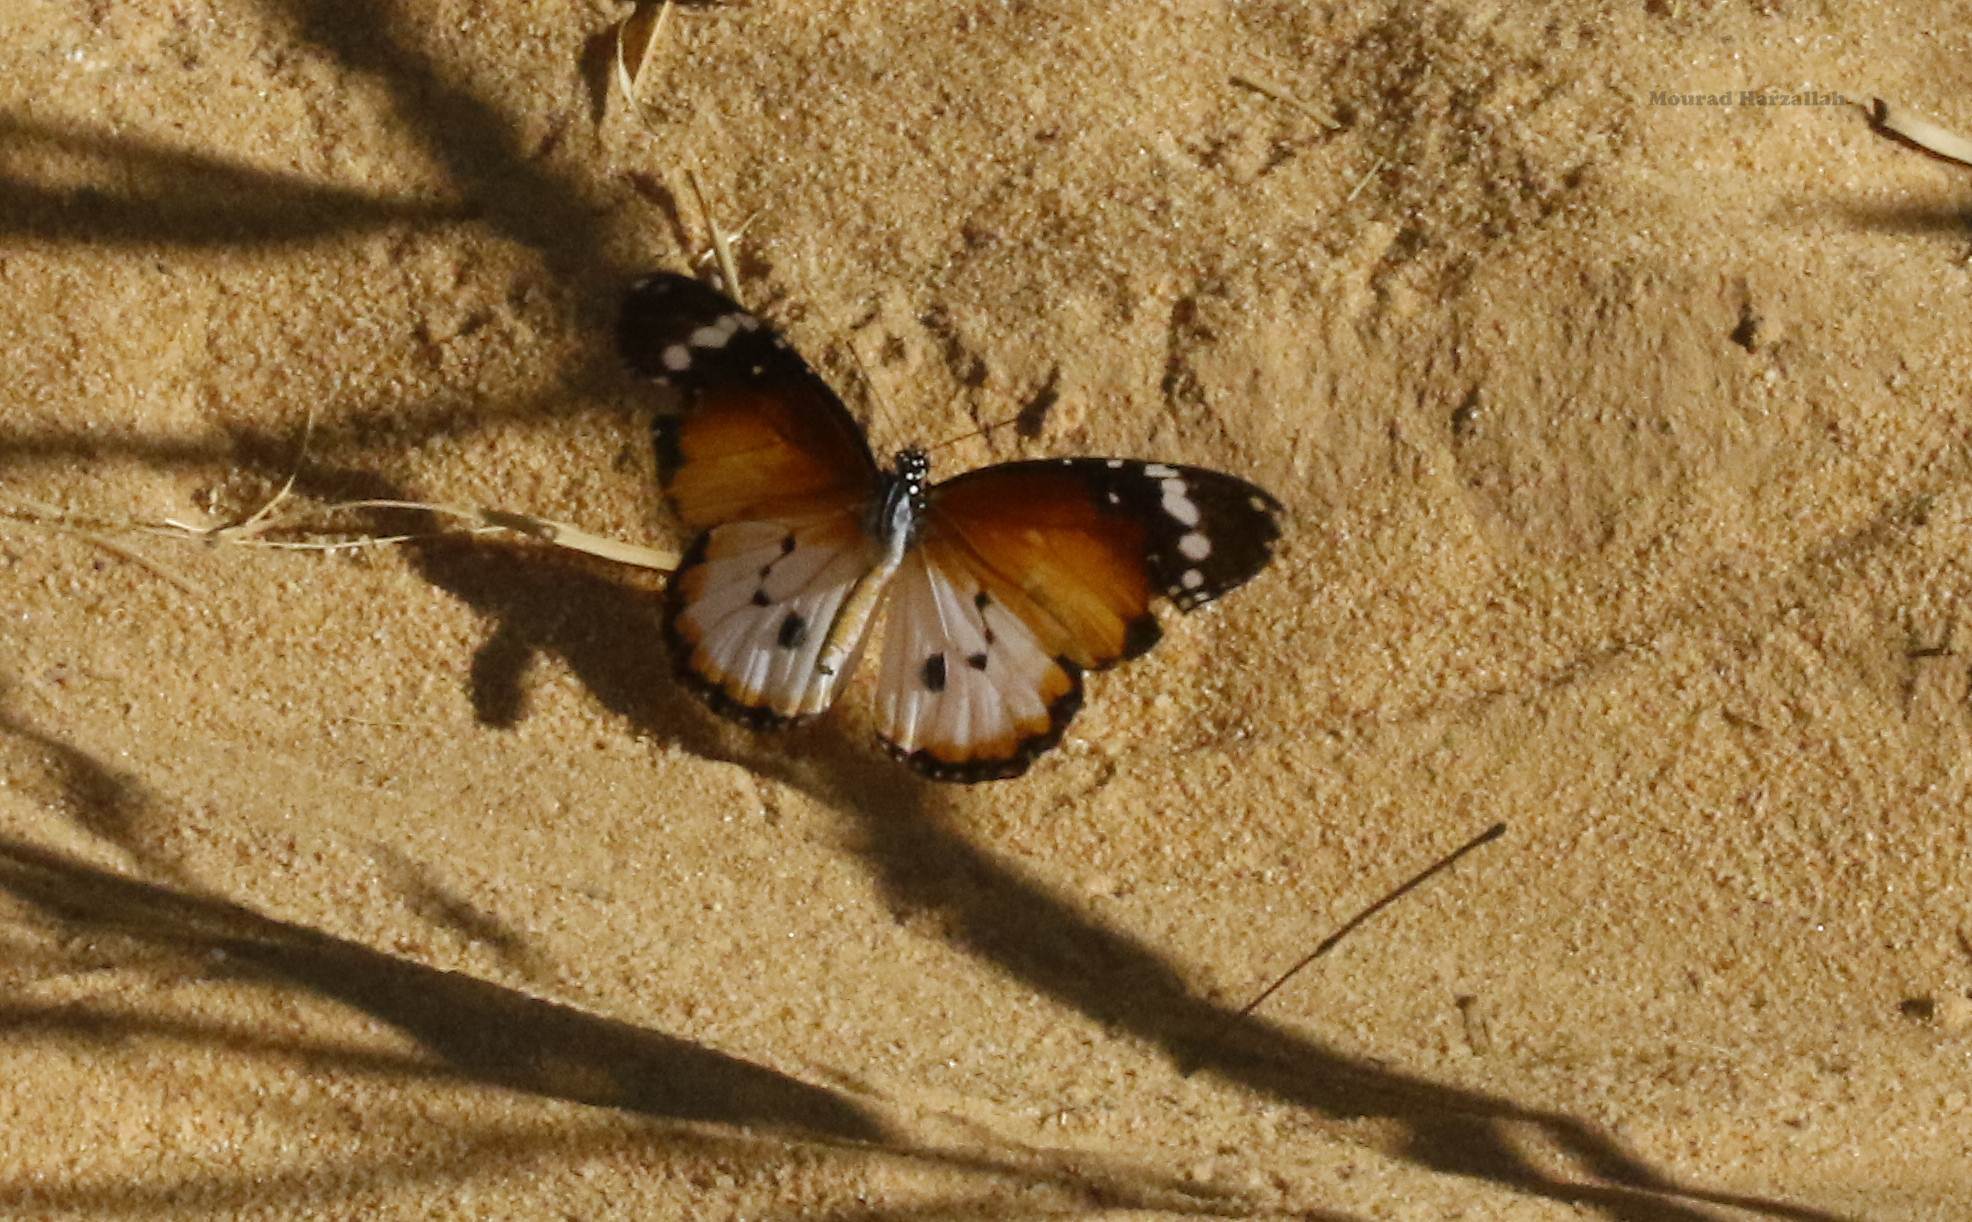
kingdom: Animalia
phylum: Arthropoda
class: Insecta
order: Lepidoptera
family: Nymphalidae
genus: Danaus
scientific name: Danaus chrysippus
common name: Plain tiger
